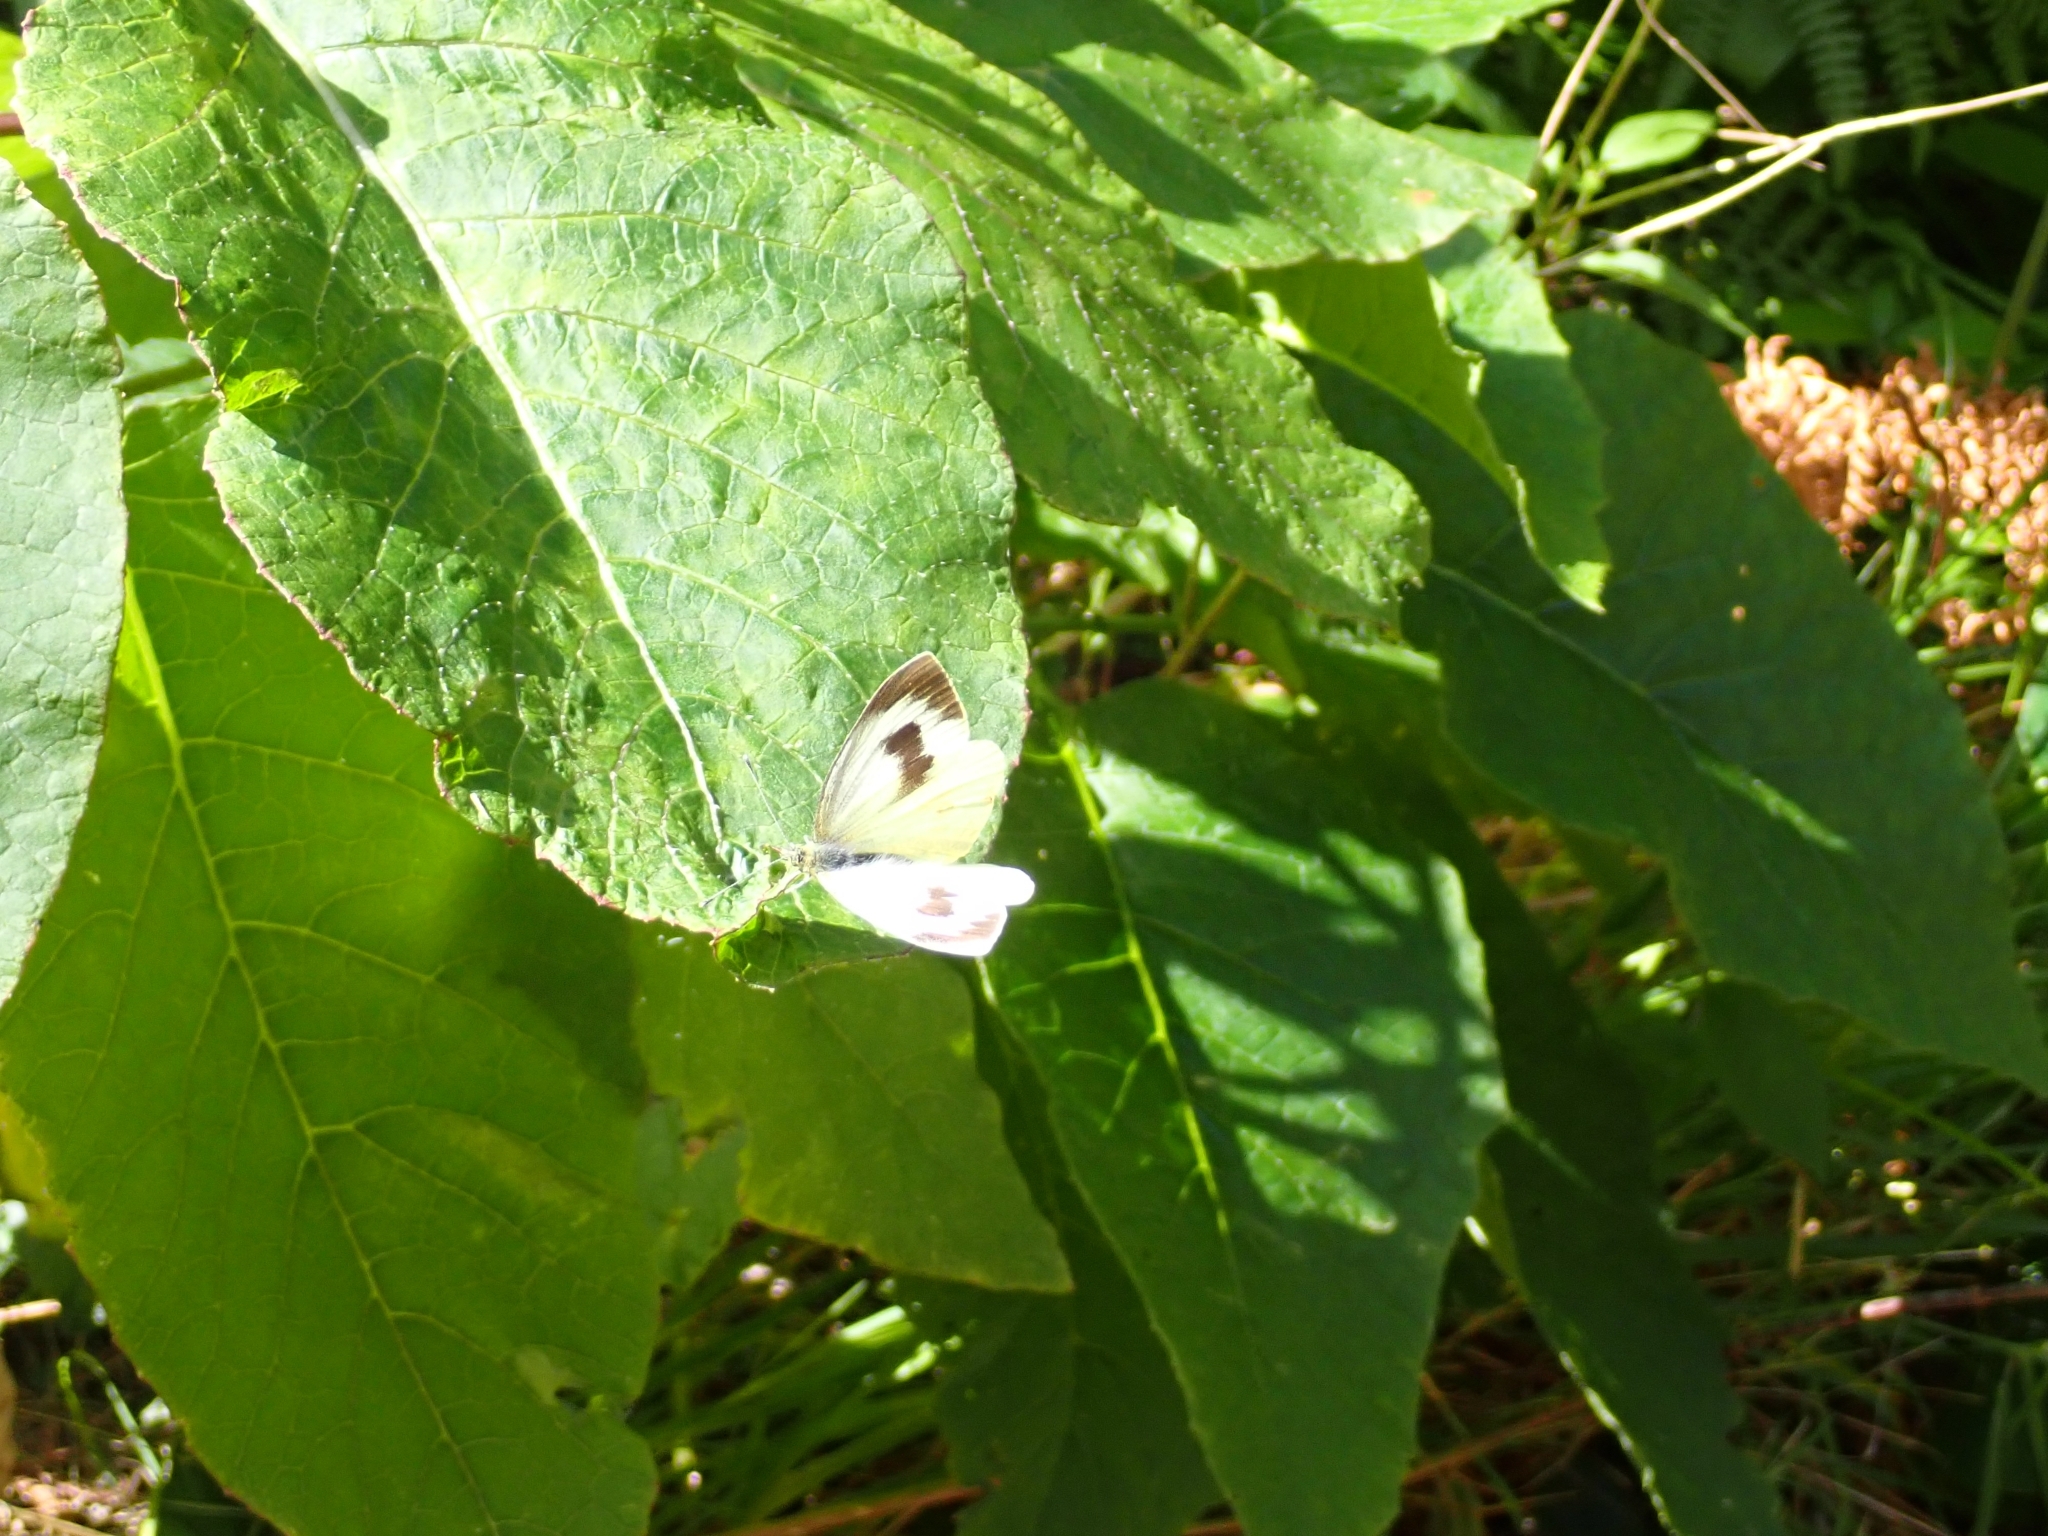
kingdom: Animalia
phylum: Arthropoda
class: Insecta
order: Lepidoptera
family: Pieridae
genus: Pieris
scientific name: Pieris cheiranthi
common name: Canary islands large white
